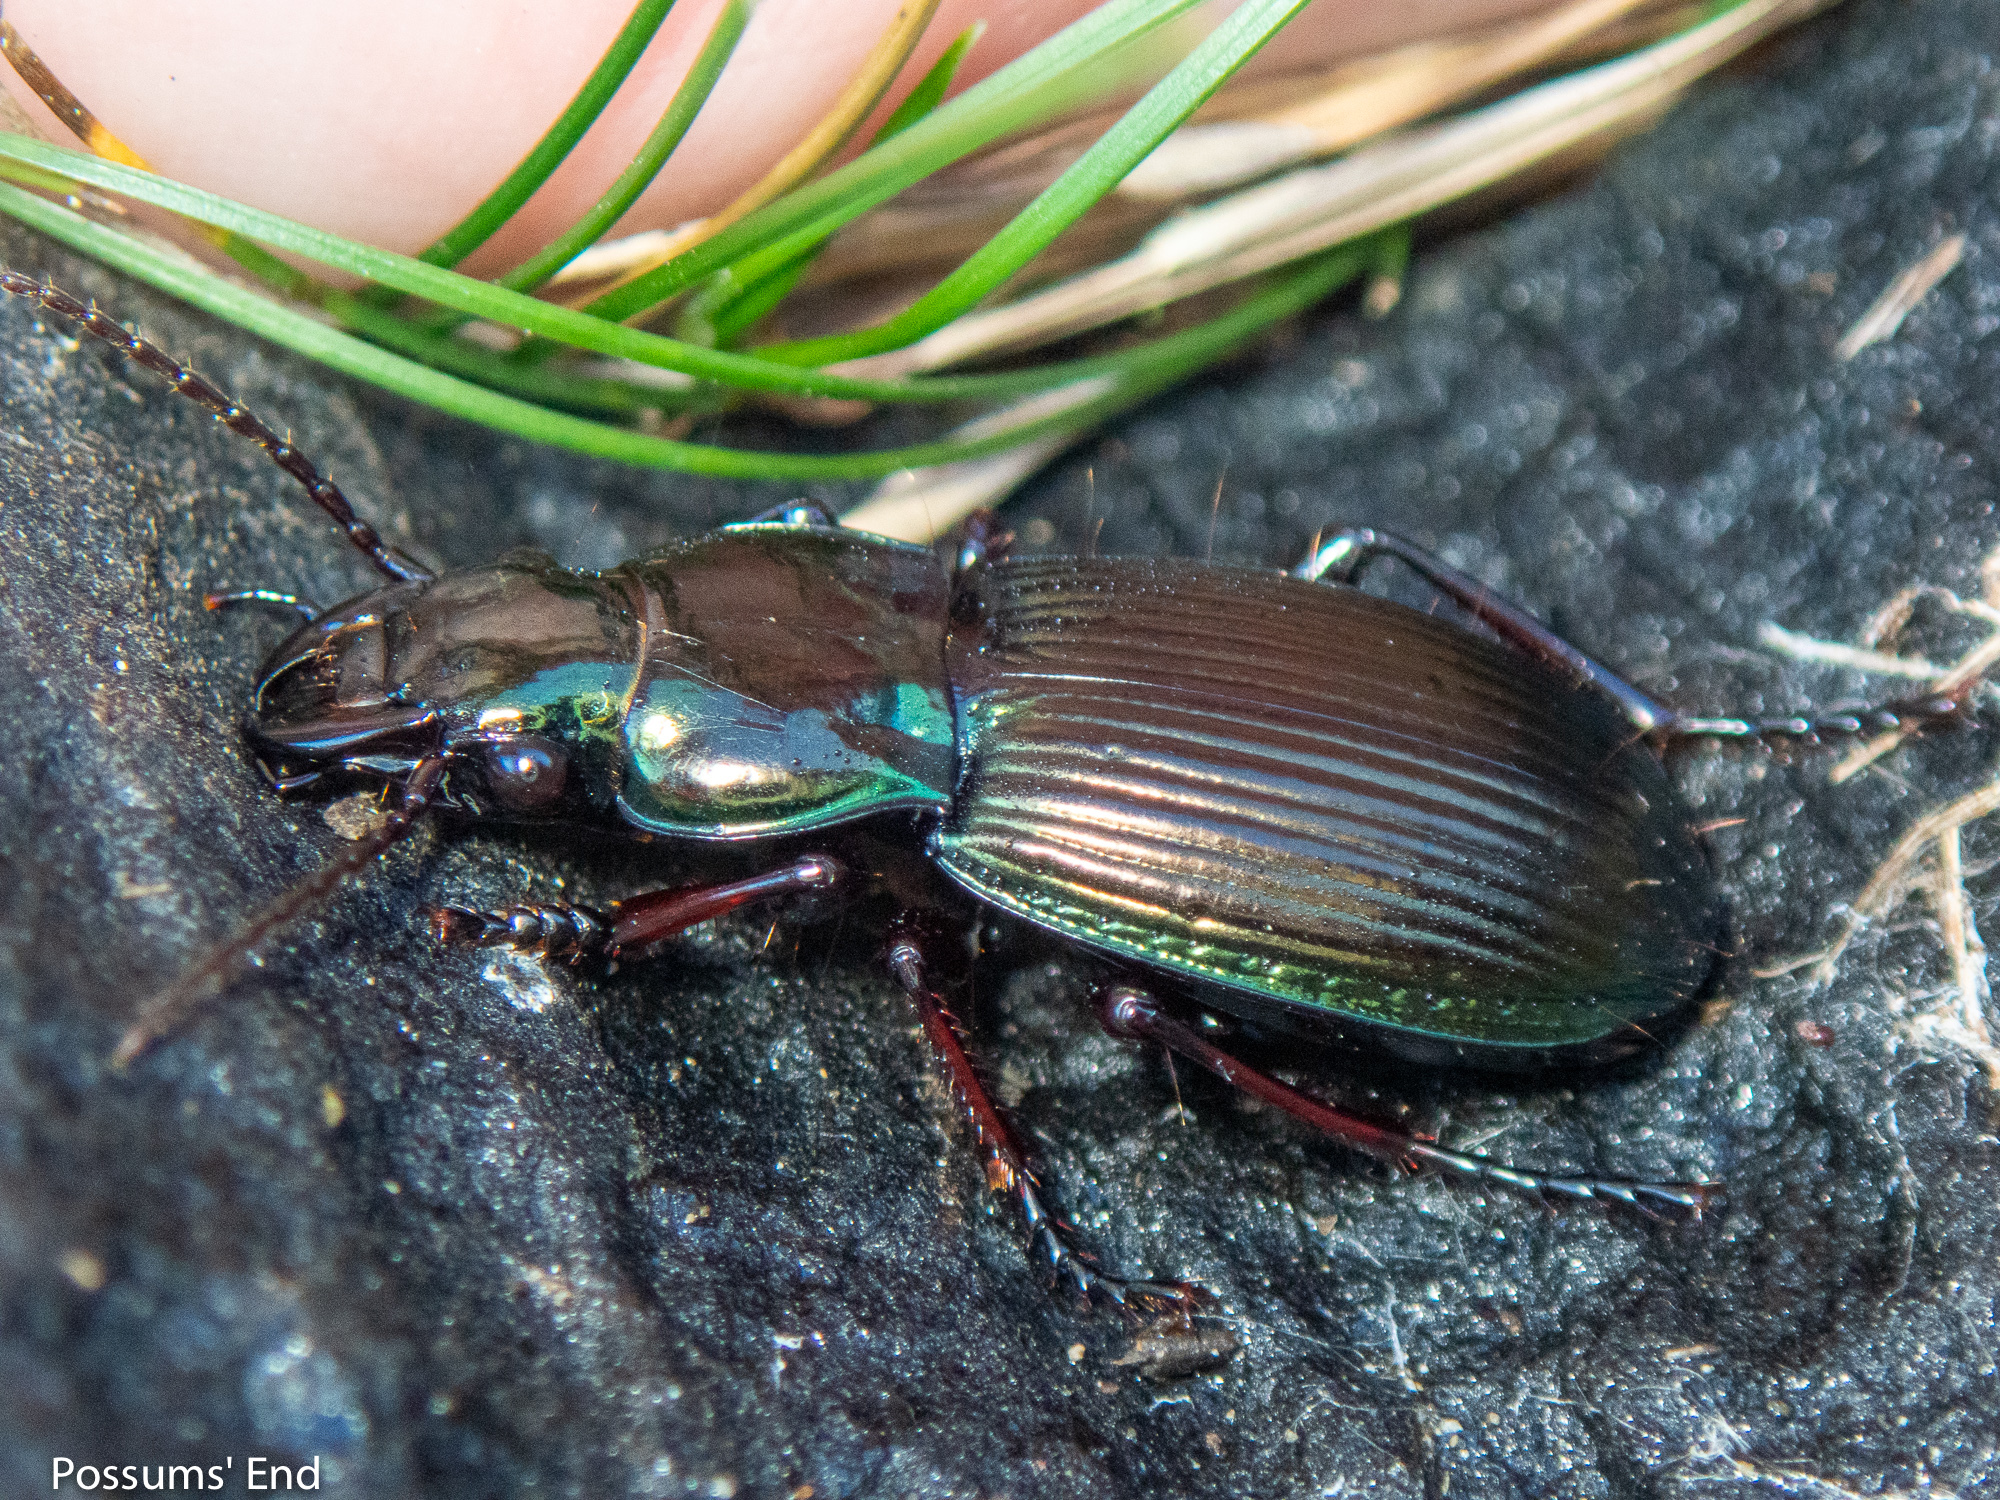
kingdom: Animalia
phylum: Arthropoda
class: Insecta
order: Coleoptera
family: Carabidae
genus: Megadromus
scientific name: Megadromus virens
